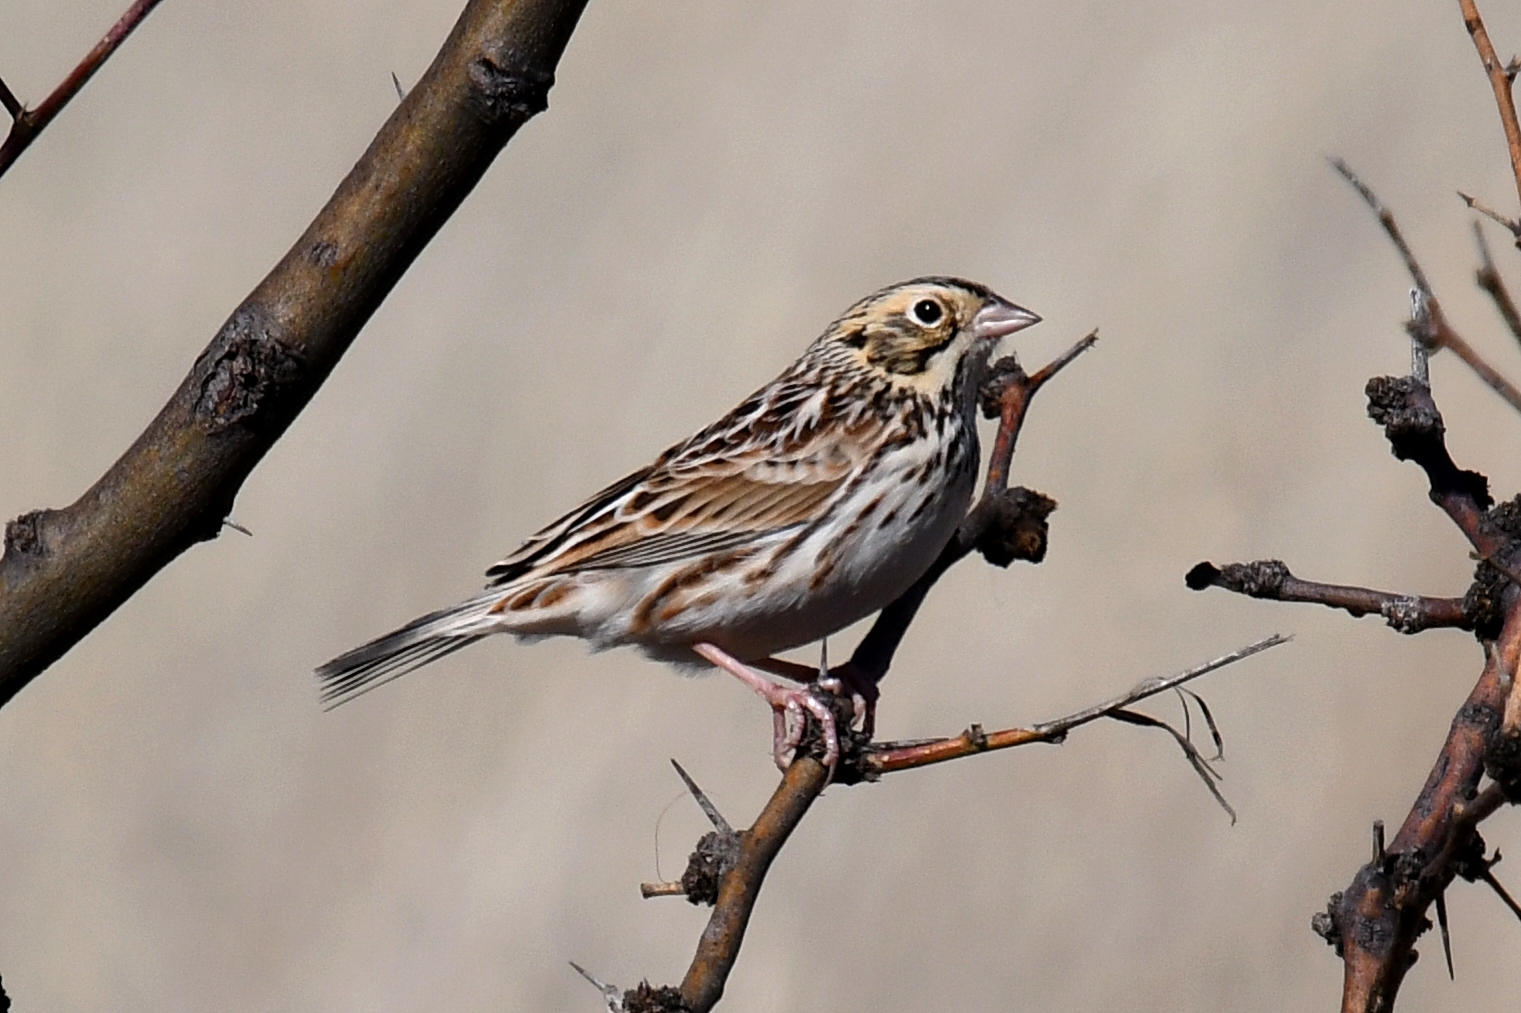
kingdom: Animalia
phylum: Chordata
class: Aves
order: Passeriformes
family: Passerellidae
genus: Centronyx
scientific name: Centronyx bairdii
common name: Baird's sparrow
